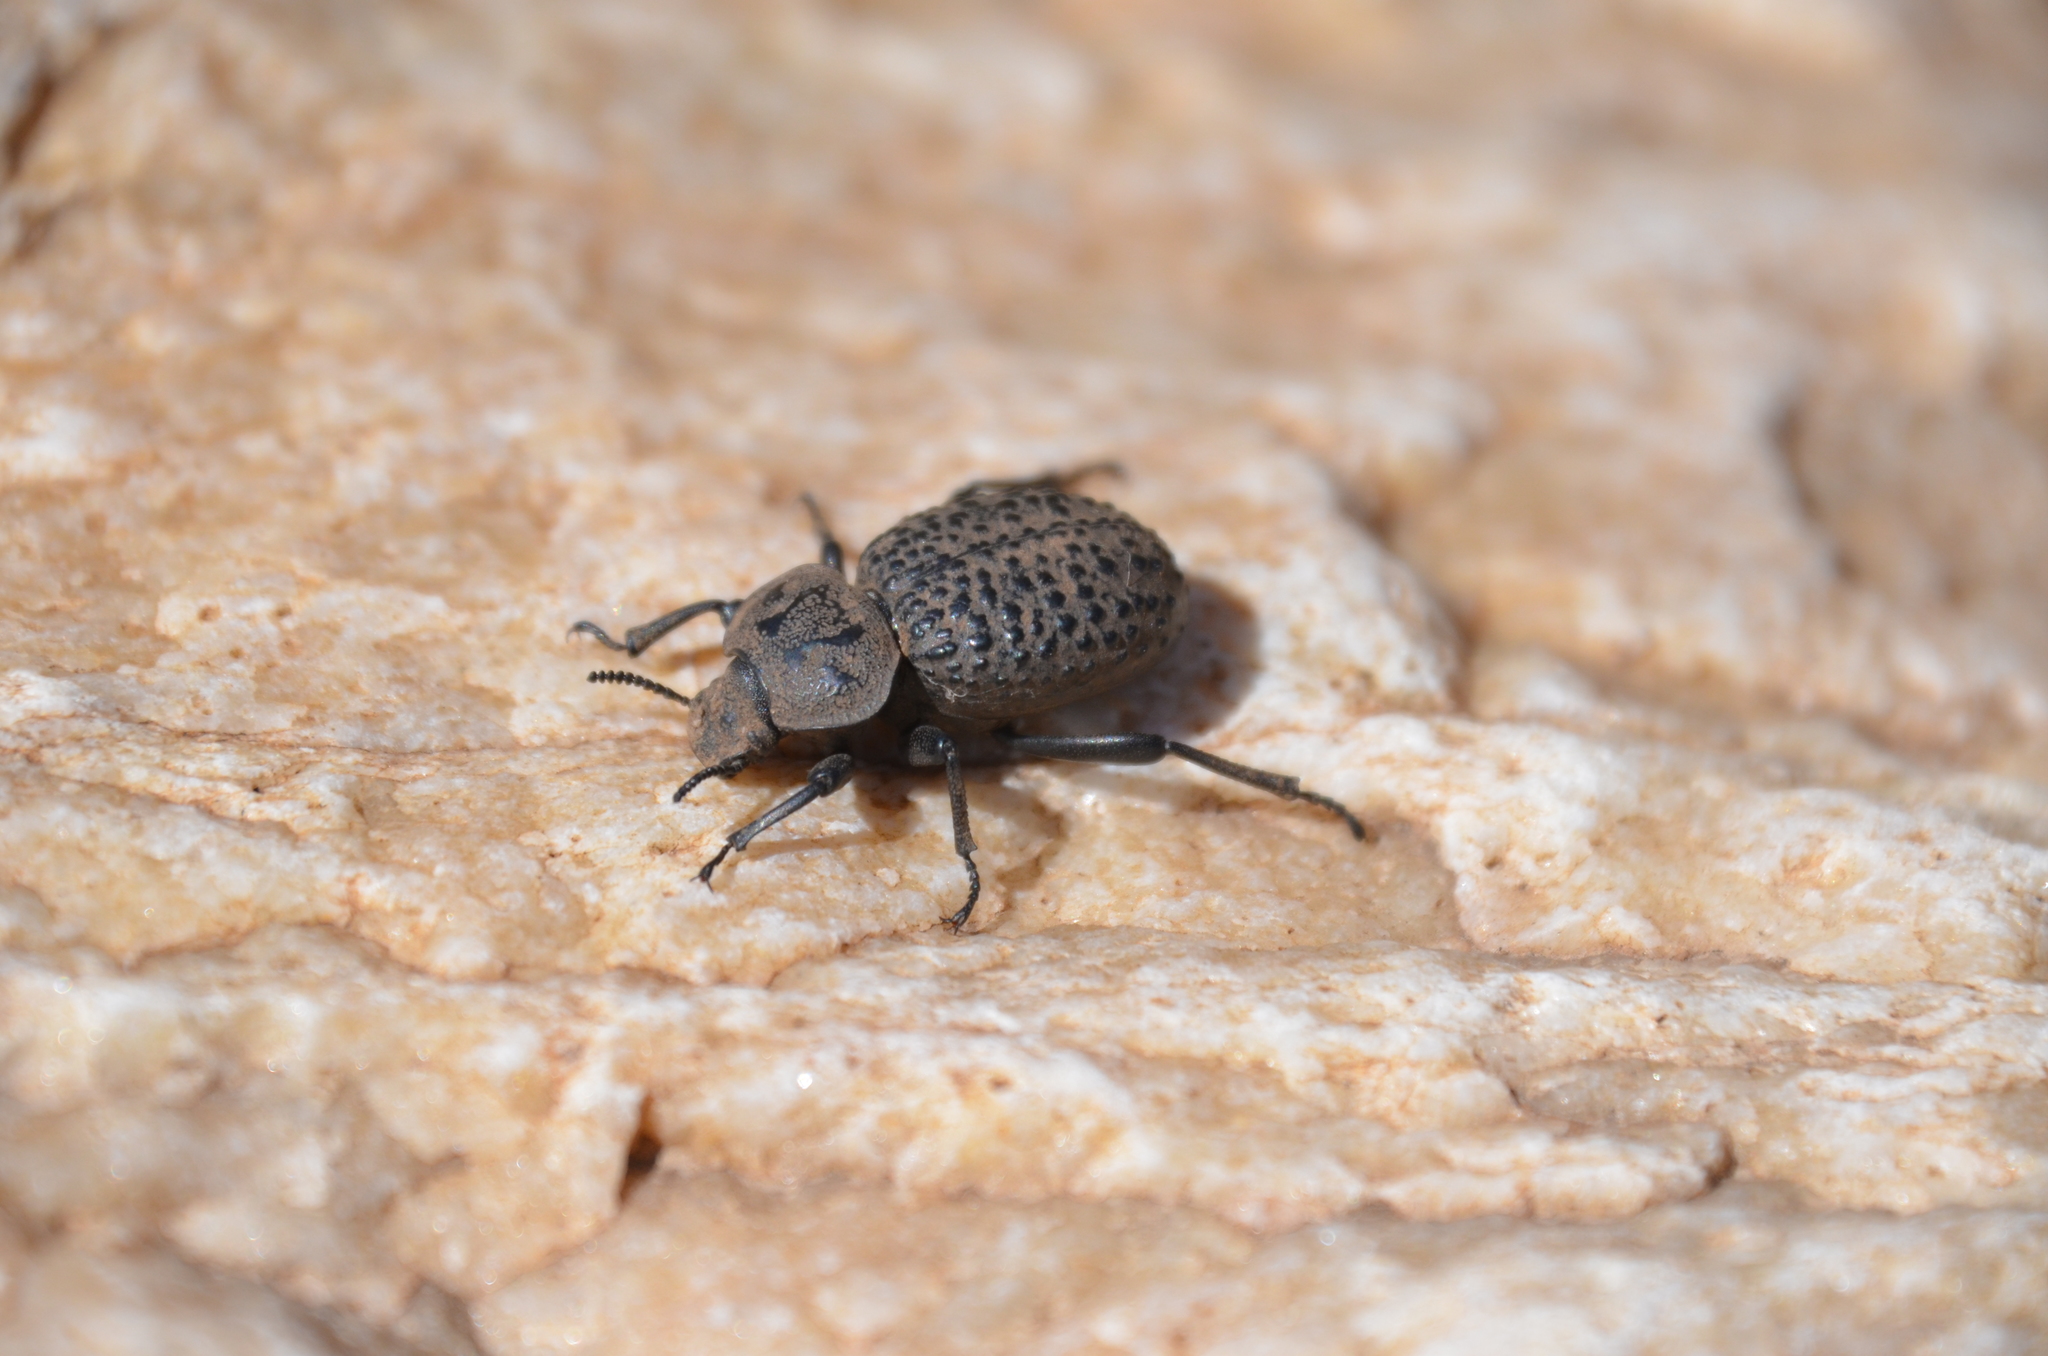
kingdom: Animalia
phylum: Arthropoda
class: Insecta
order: Coleoptera
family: Tenebrionidae
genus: Scotobius
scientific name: Scotobius pilularius
